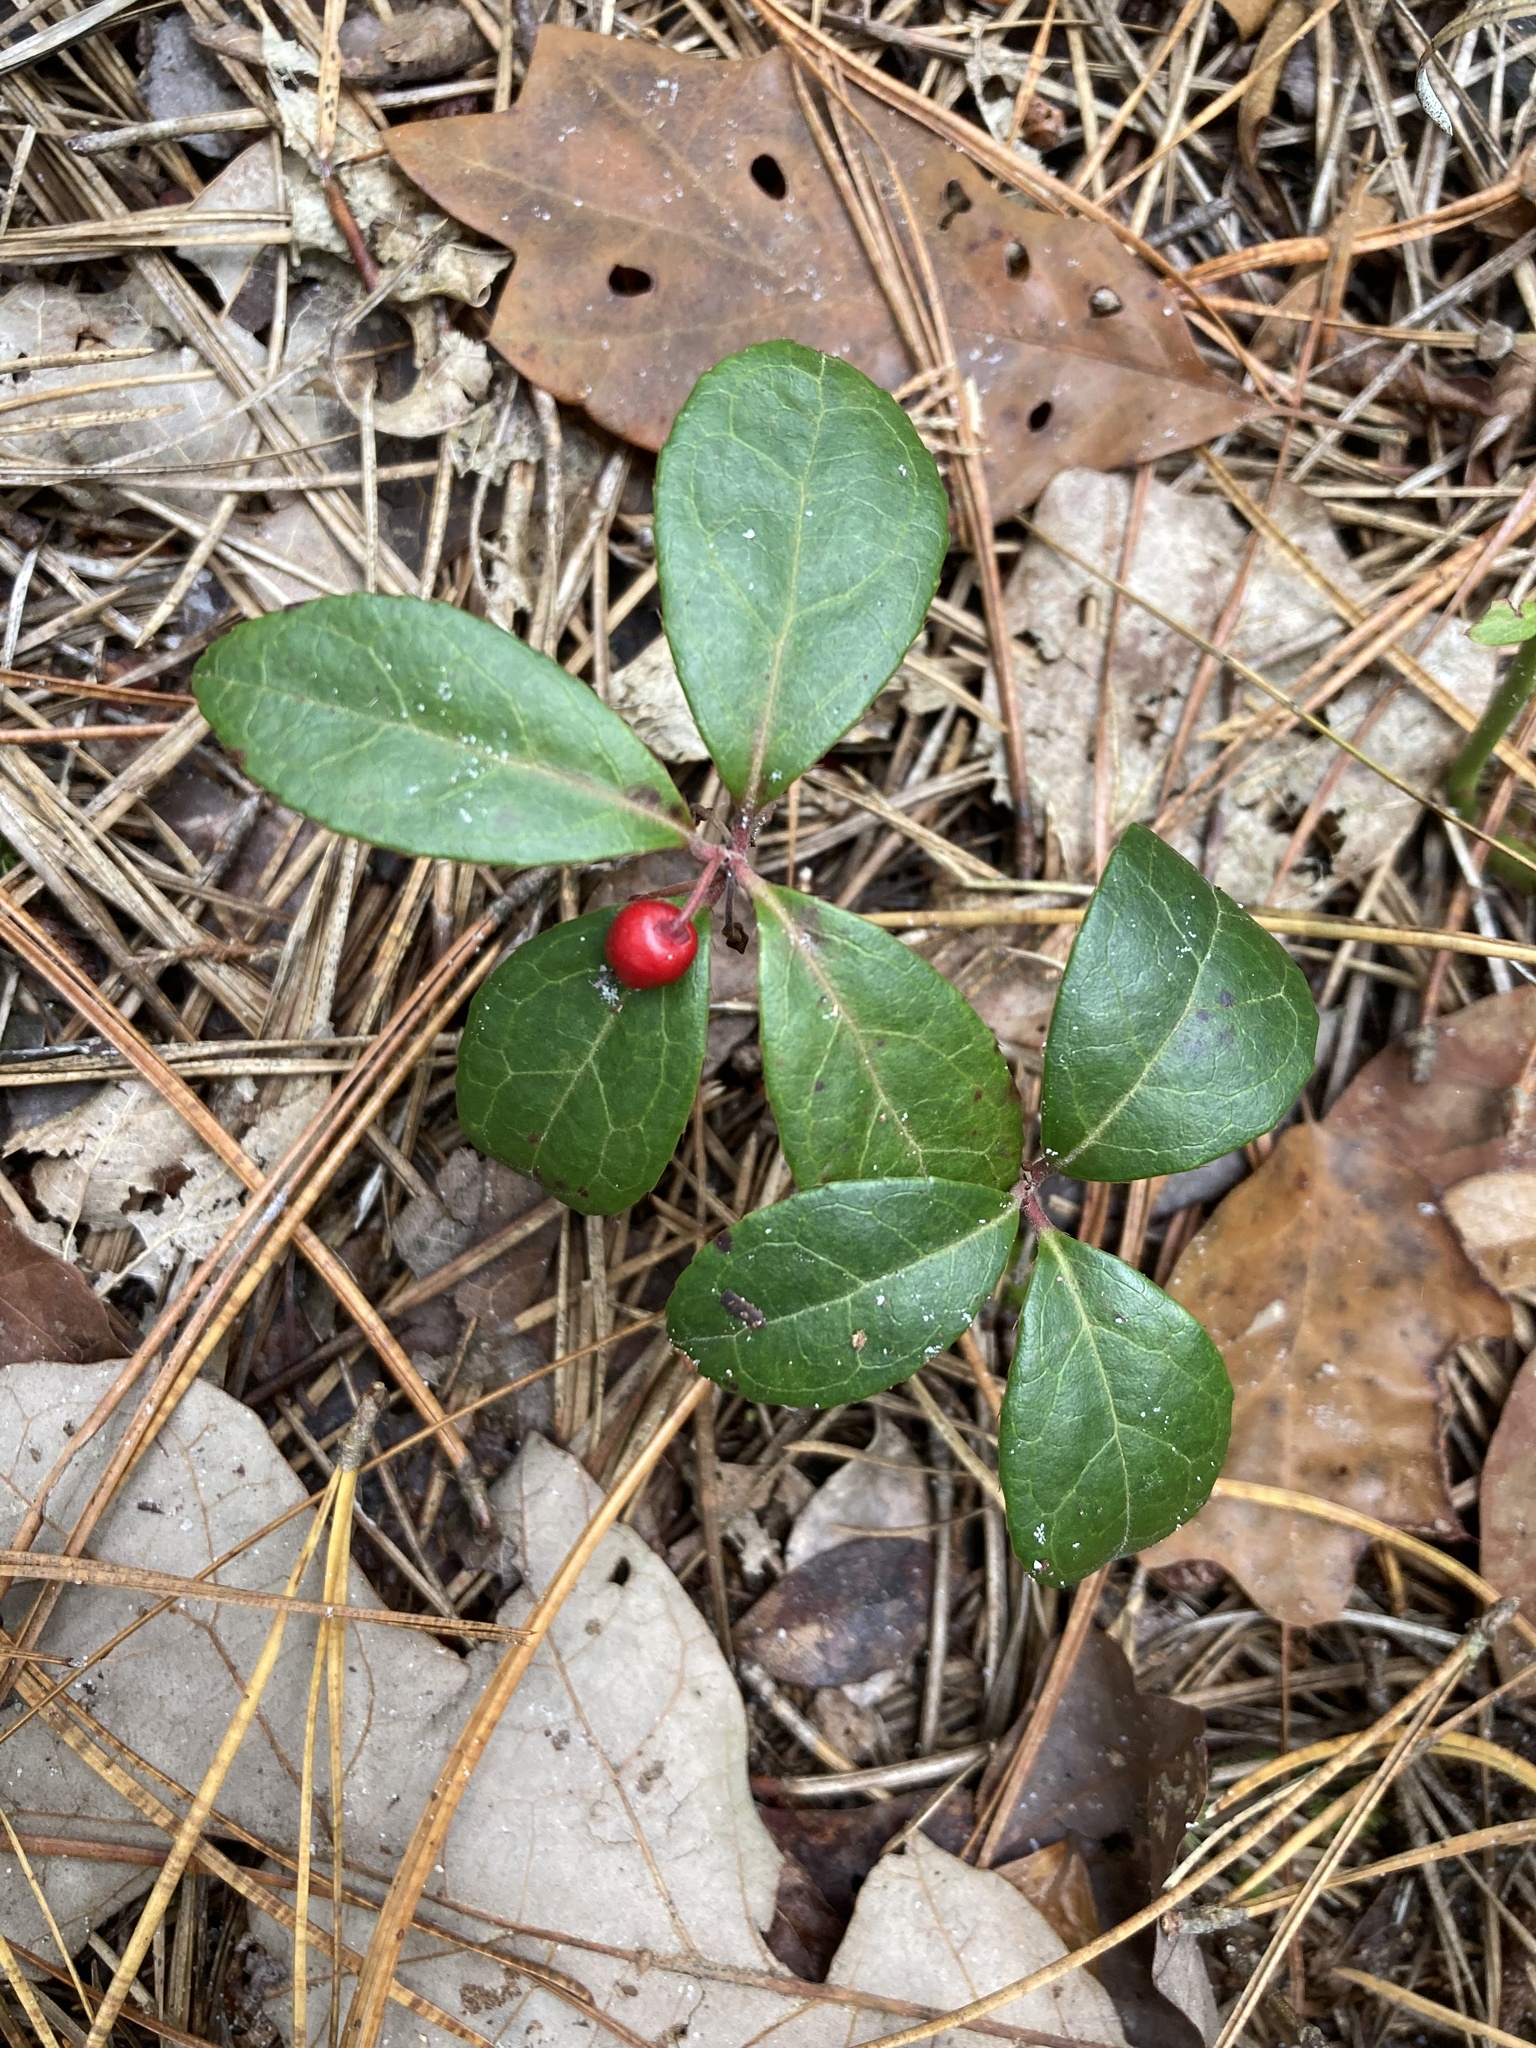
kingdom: Plantae
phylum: Tracheophyta
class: Magnoliopsida
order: Ericales
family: Ericaceae
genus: Gaultheria
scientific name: Gaultheria procumbens
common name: Checkerberry
